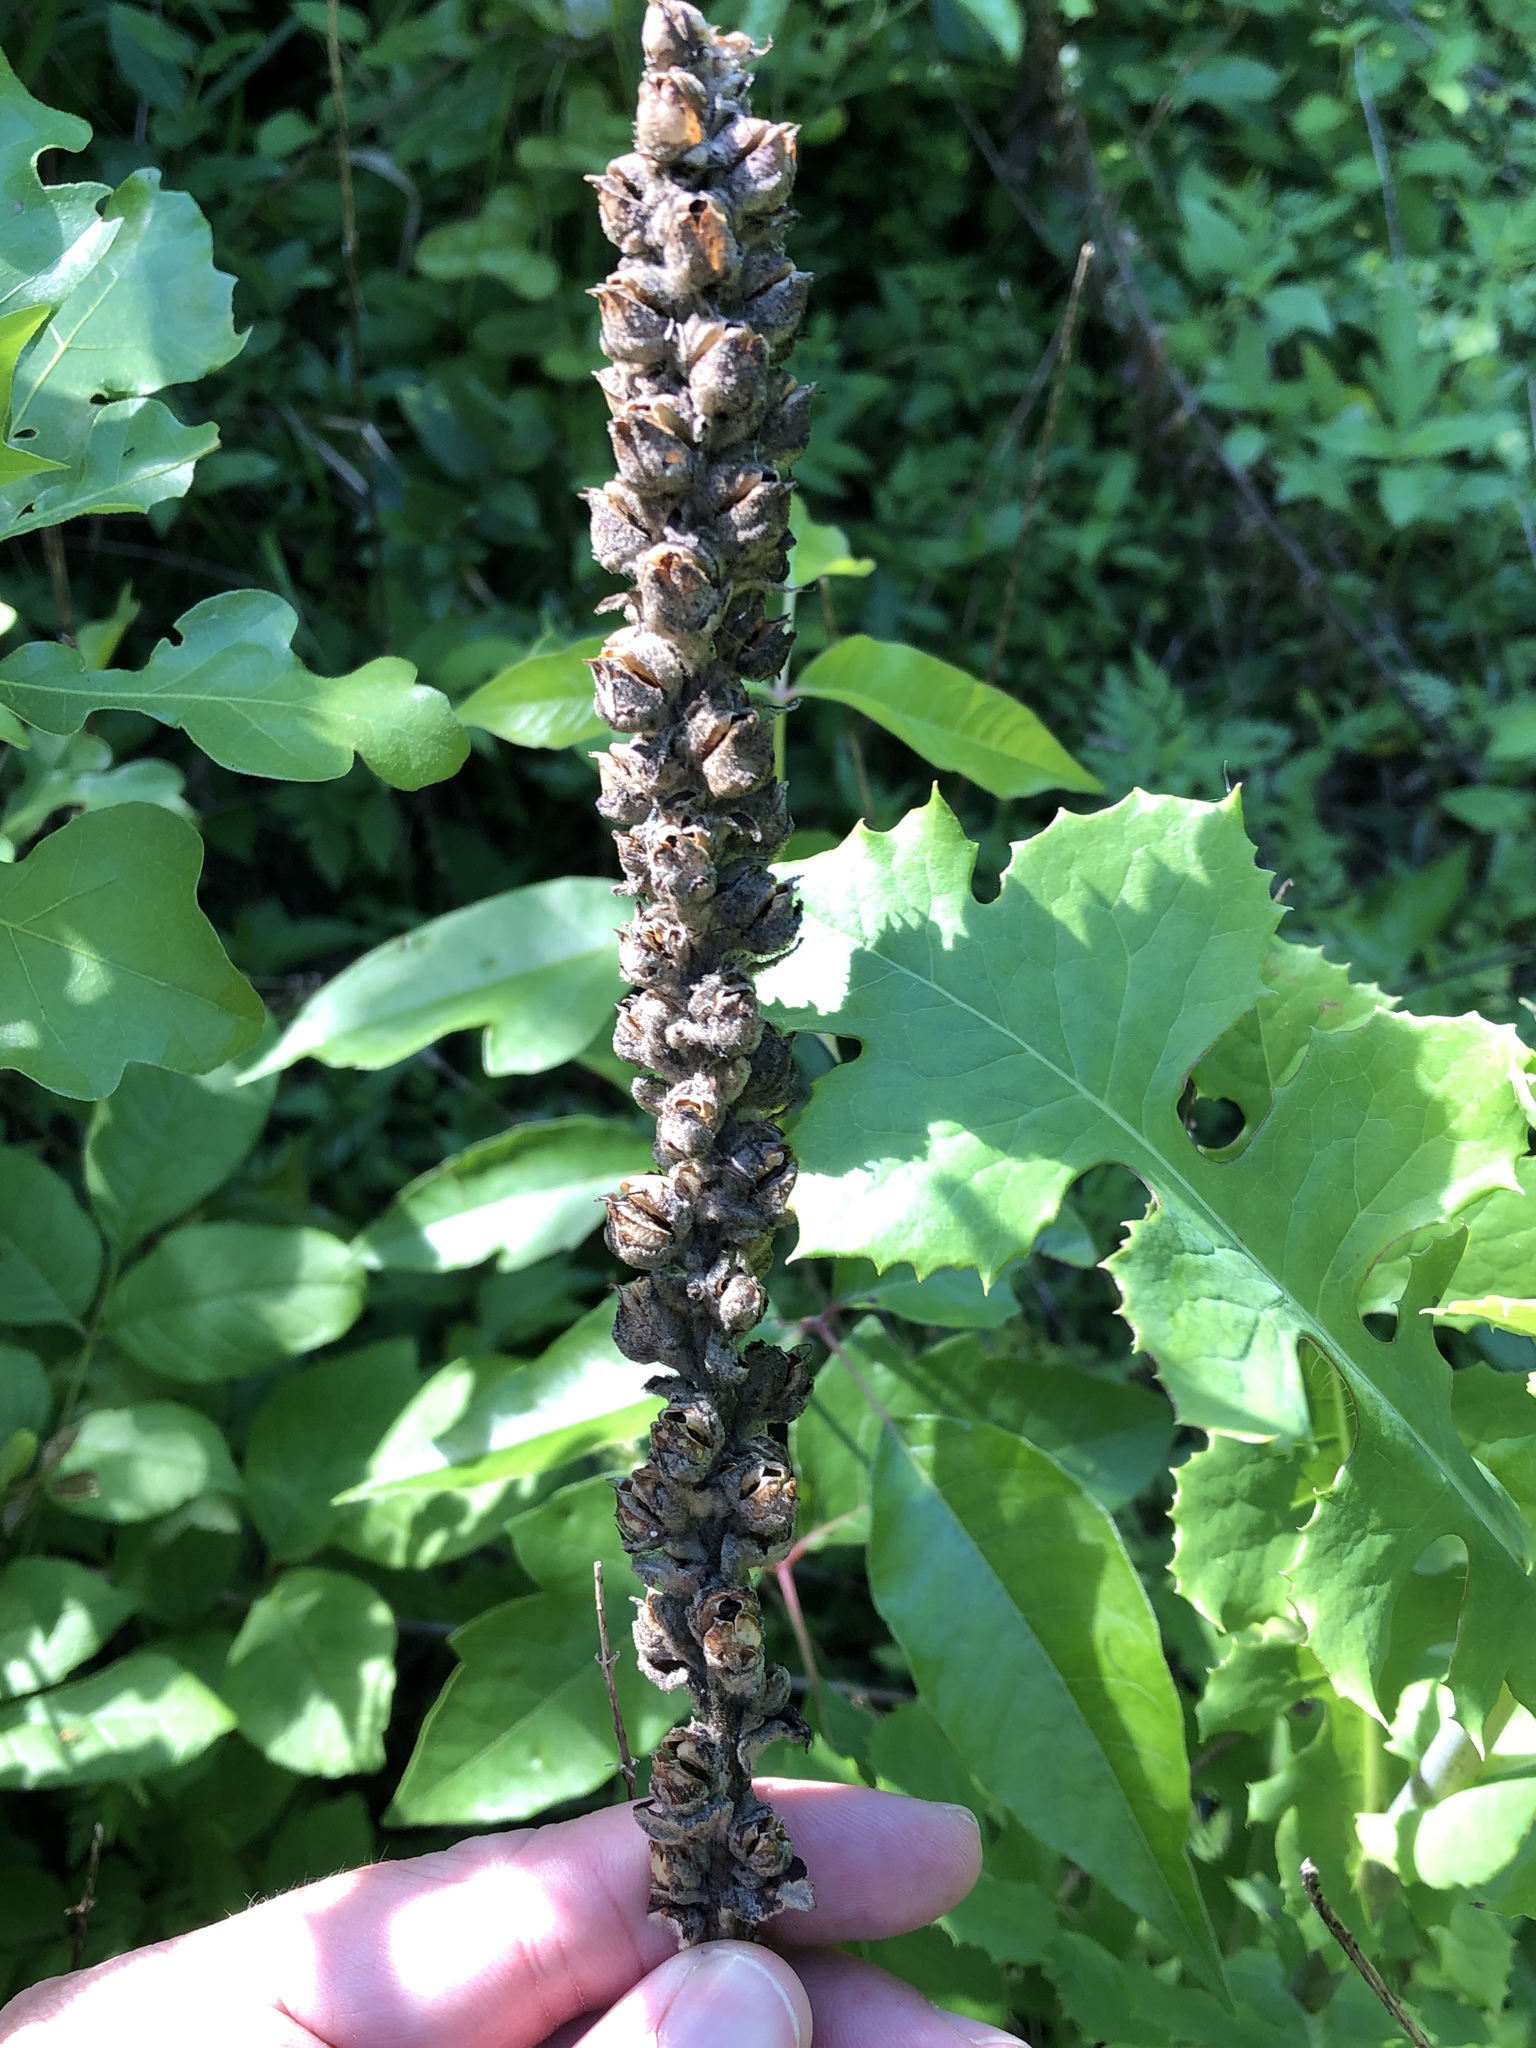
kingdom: Plantae
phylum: Tracheophyta
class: Magnoliopsida
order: Lamiales
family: Scrophulariaceae
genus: Verbascum
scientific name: Verbascum thapsus
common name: Common mullein
